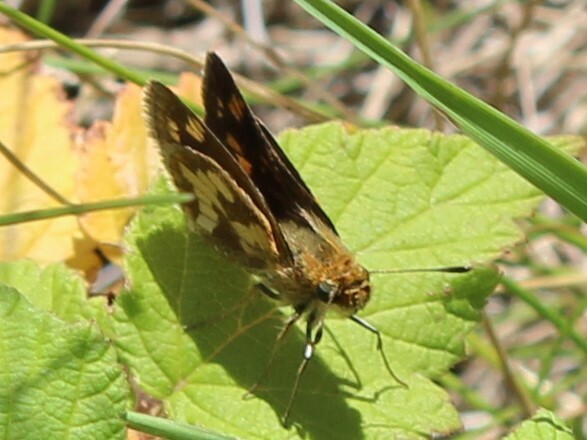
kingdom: Animalia
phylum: Arthropoda
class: Insecta
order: Lepidoptera
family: Hesperiidae
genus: Polites
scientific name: Polites coras
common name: Peck's skipper
